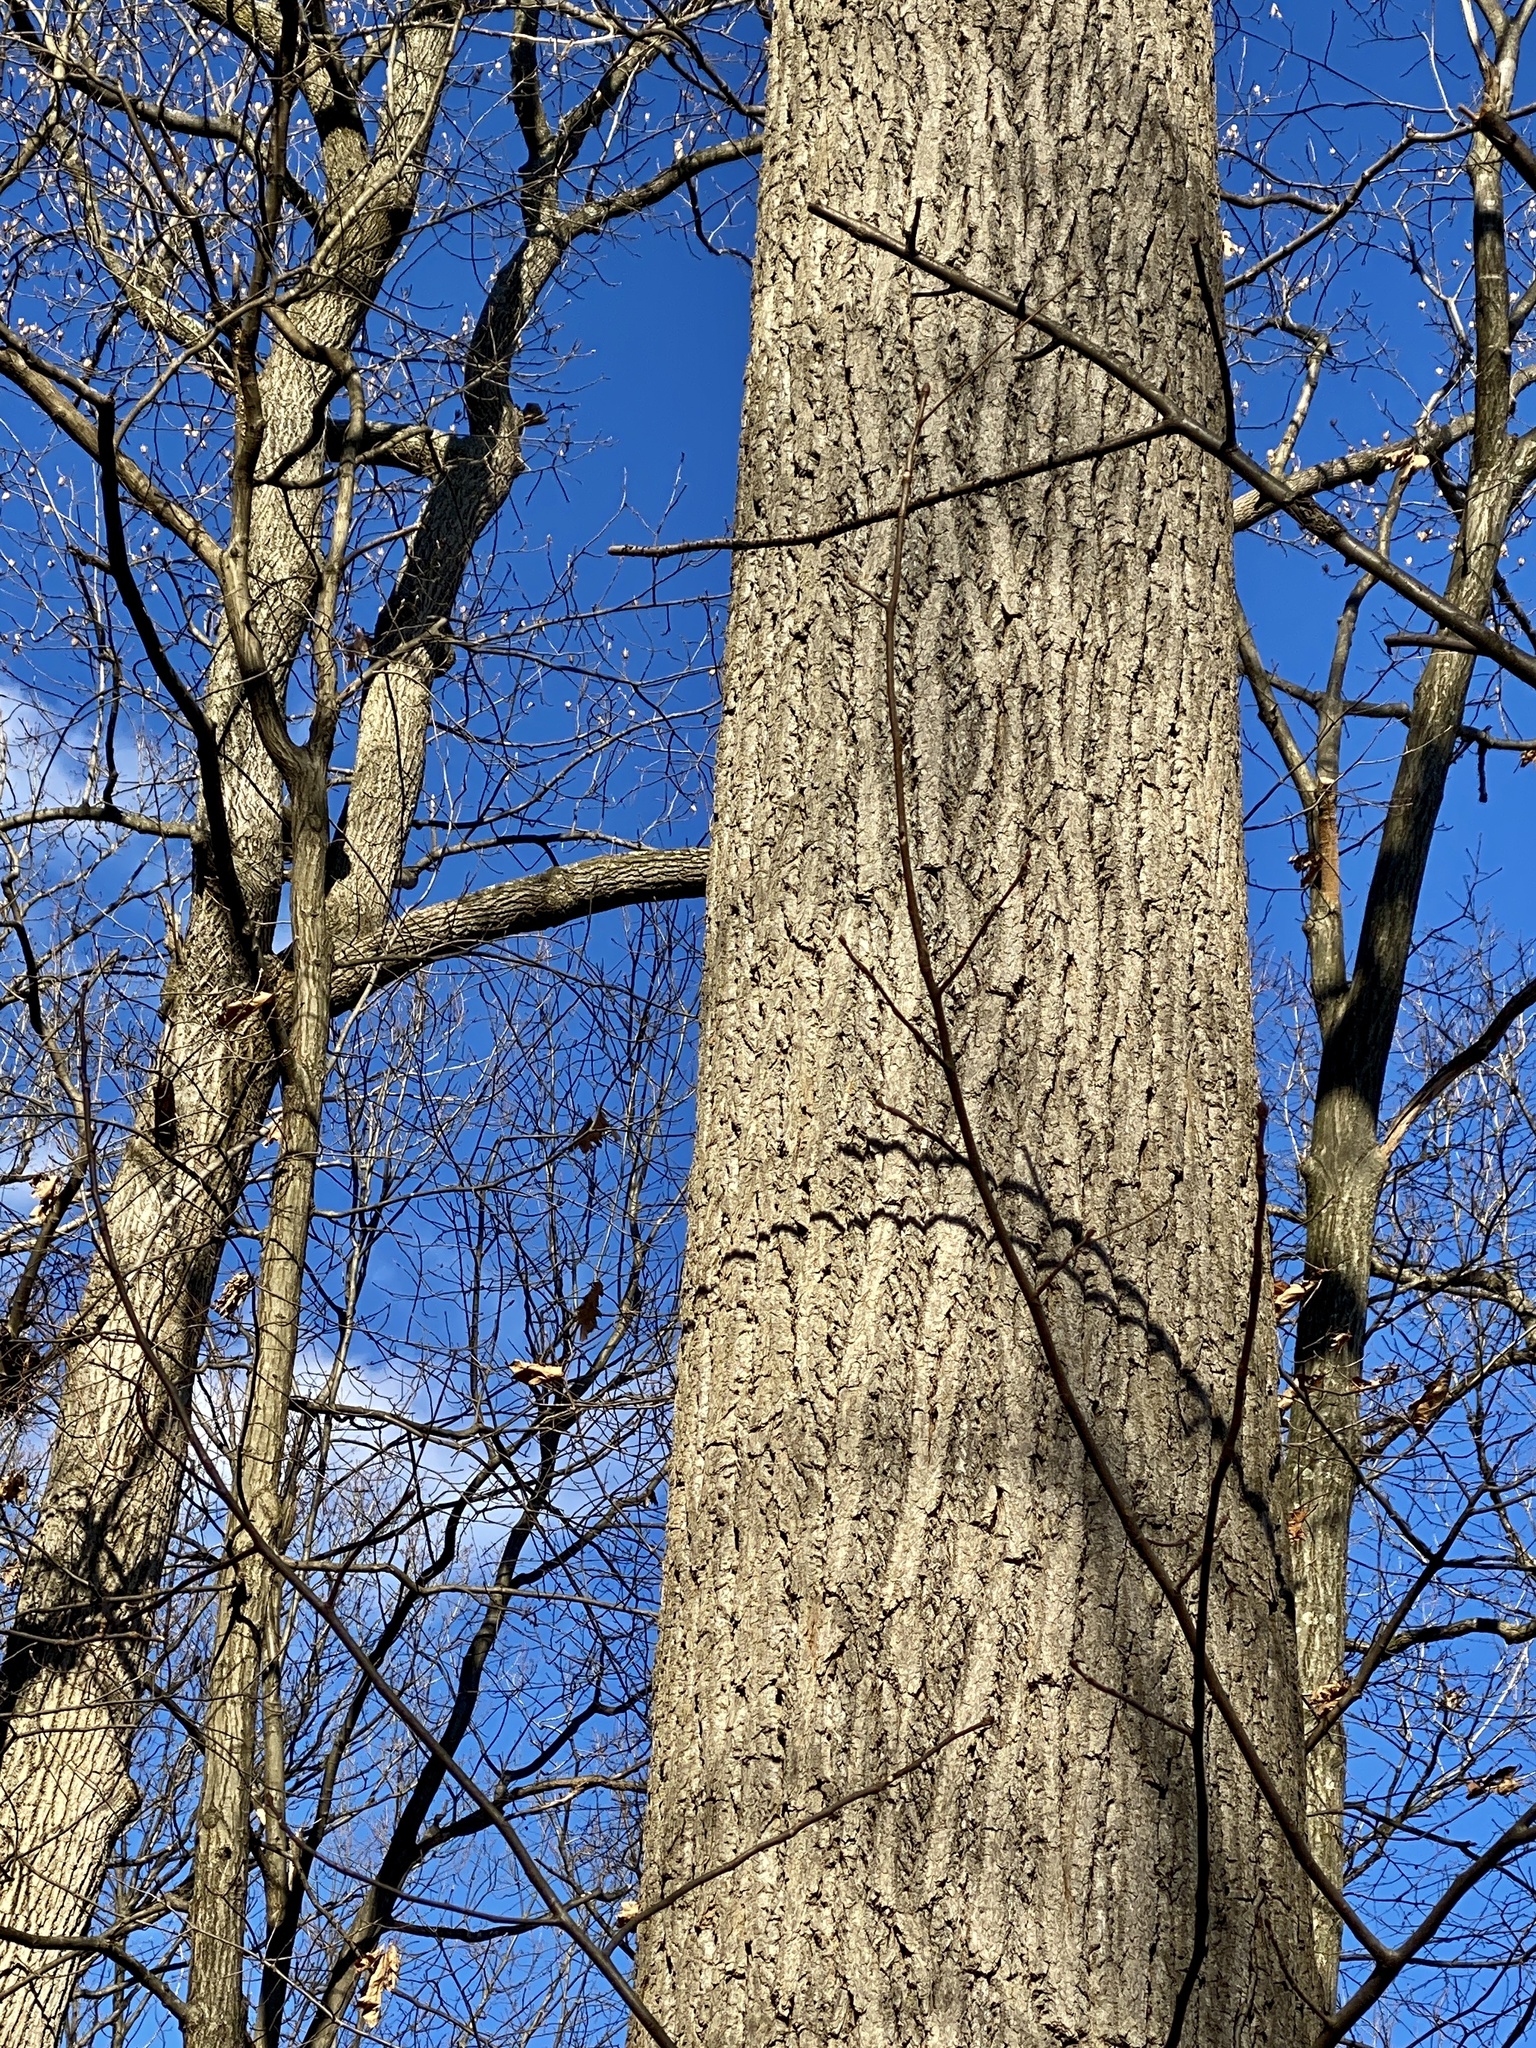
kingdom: Plantae
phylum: Tracheophyta
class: Magnoliopsida
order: Magnoliales
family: Magnoliaceae
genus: Liriodendron
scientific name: Liriodendron tulipifera
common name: Tulip tree
